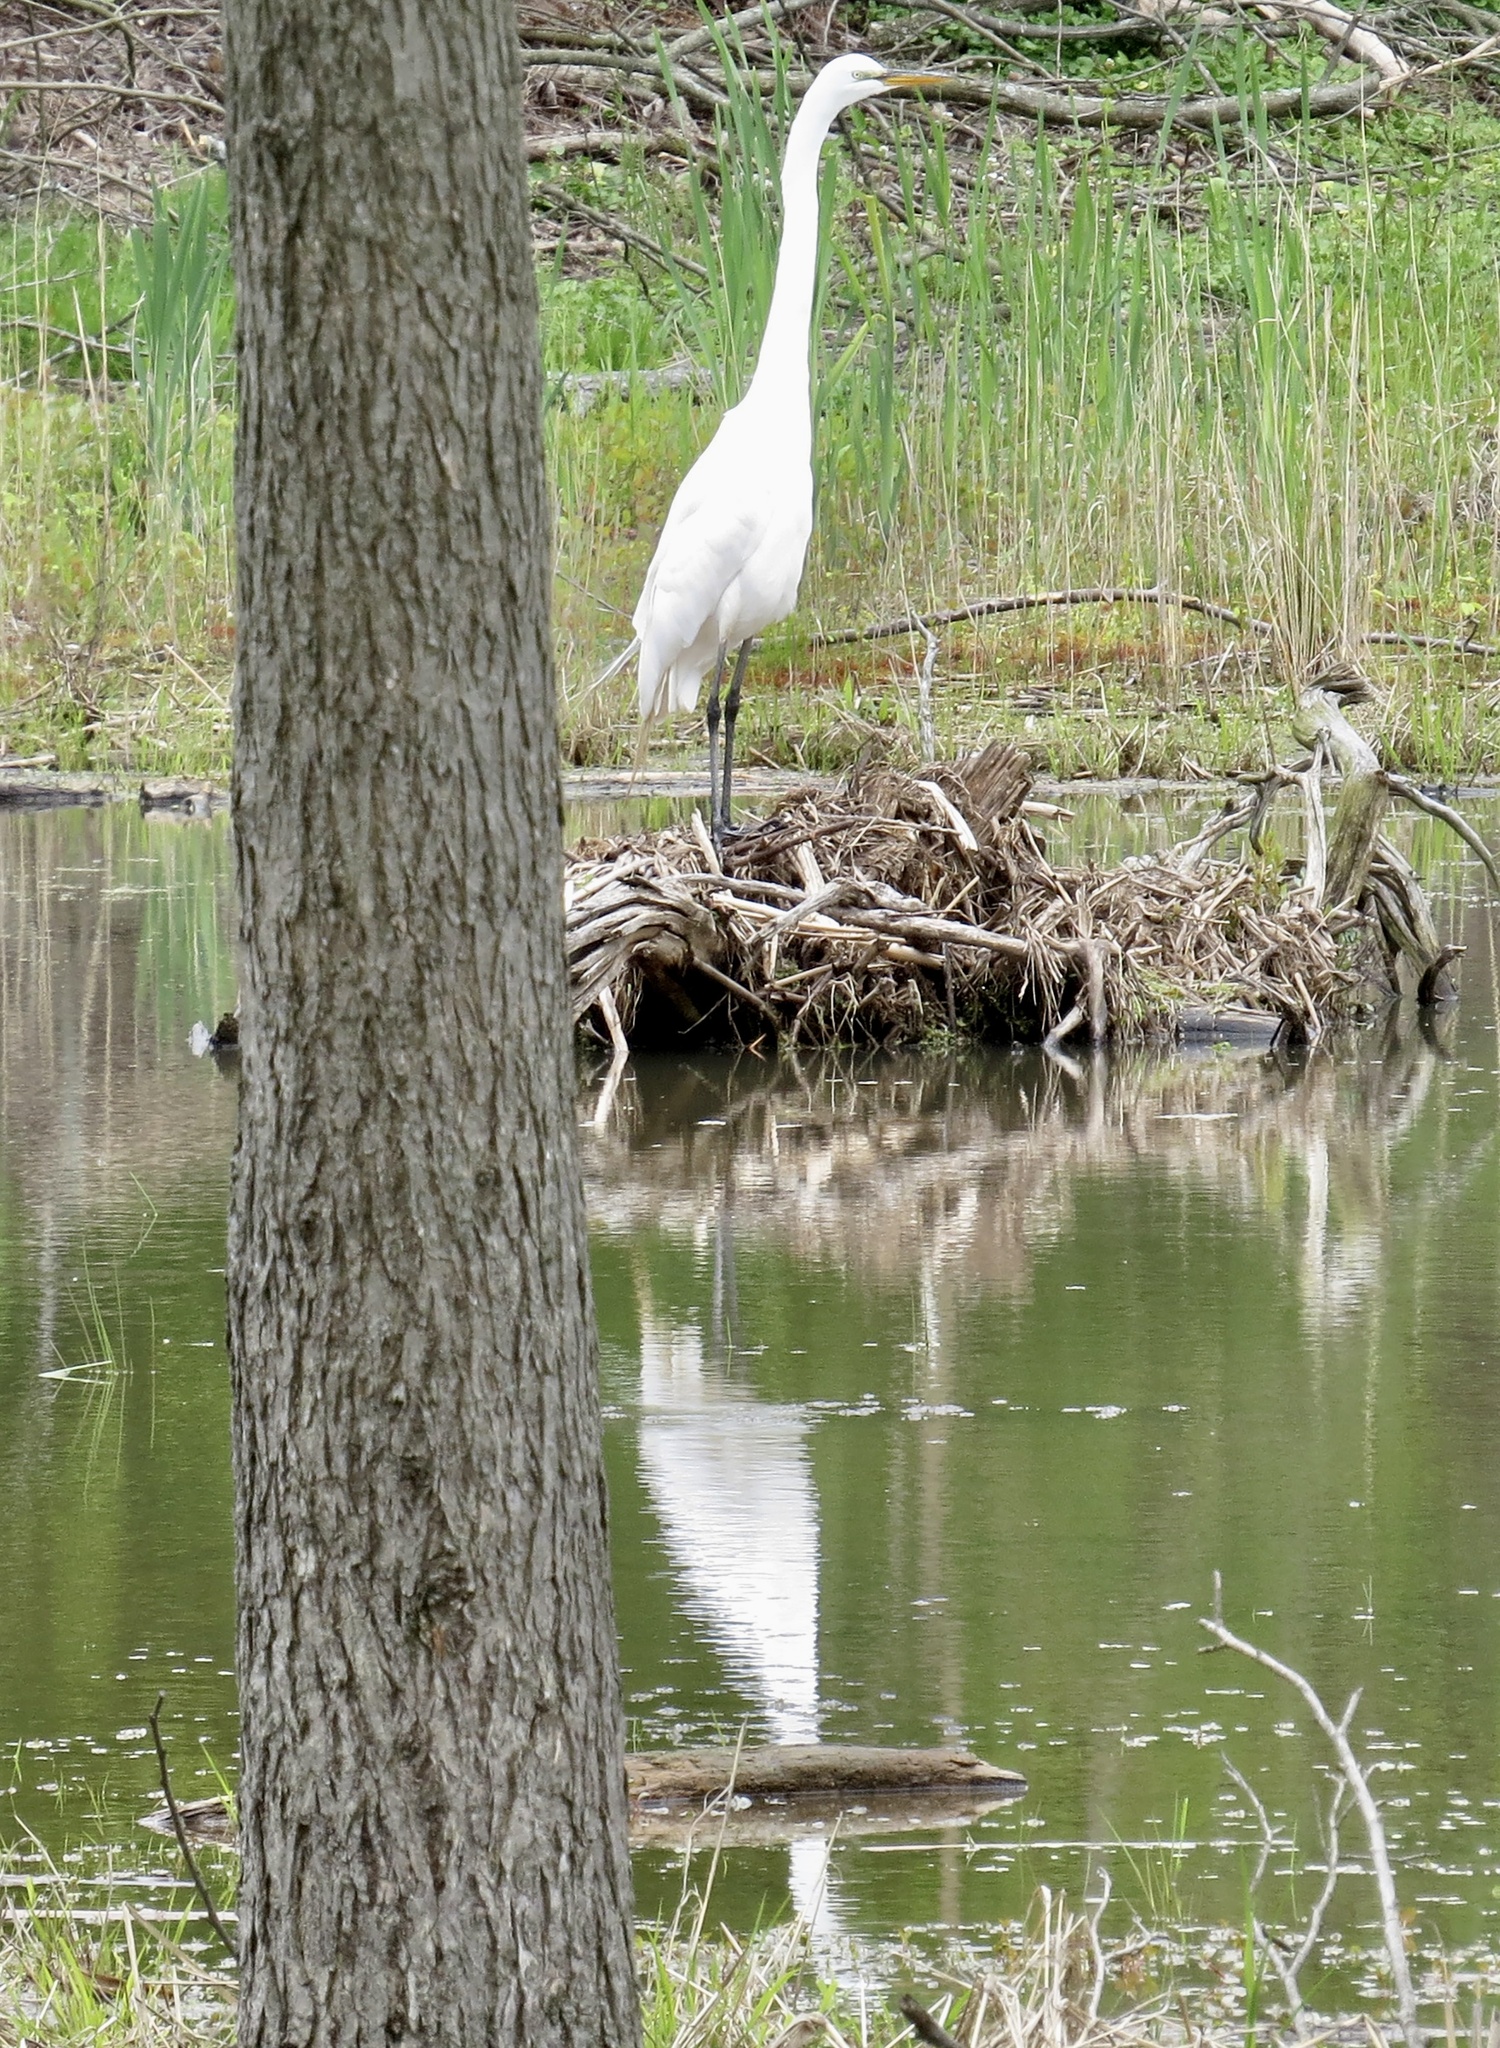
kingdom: Animalia
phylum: Chordata
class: Aves
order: Pelecaniformes
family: Ardeidae
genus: Ardea
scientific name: Ardea alba
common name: Great egret
